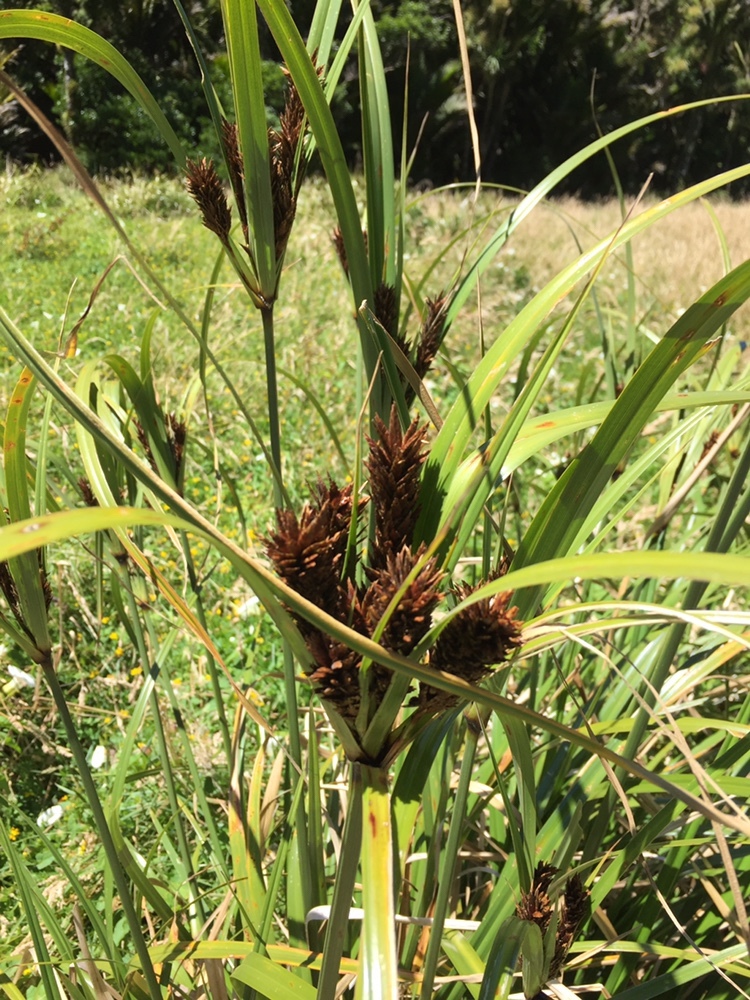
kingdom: Plantae
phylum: Tracheophyta
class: Liliopsida
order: Poales
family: Cyperaceae
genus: Cyperus
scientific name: Cyperus ustulatus
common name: Giant umbrella-sedge
